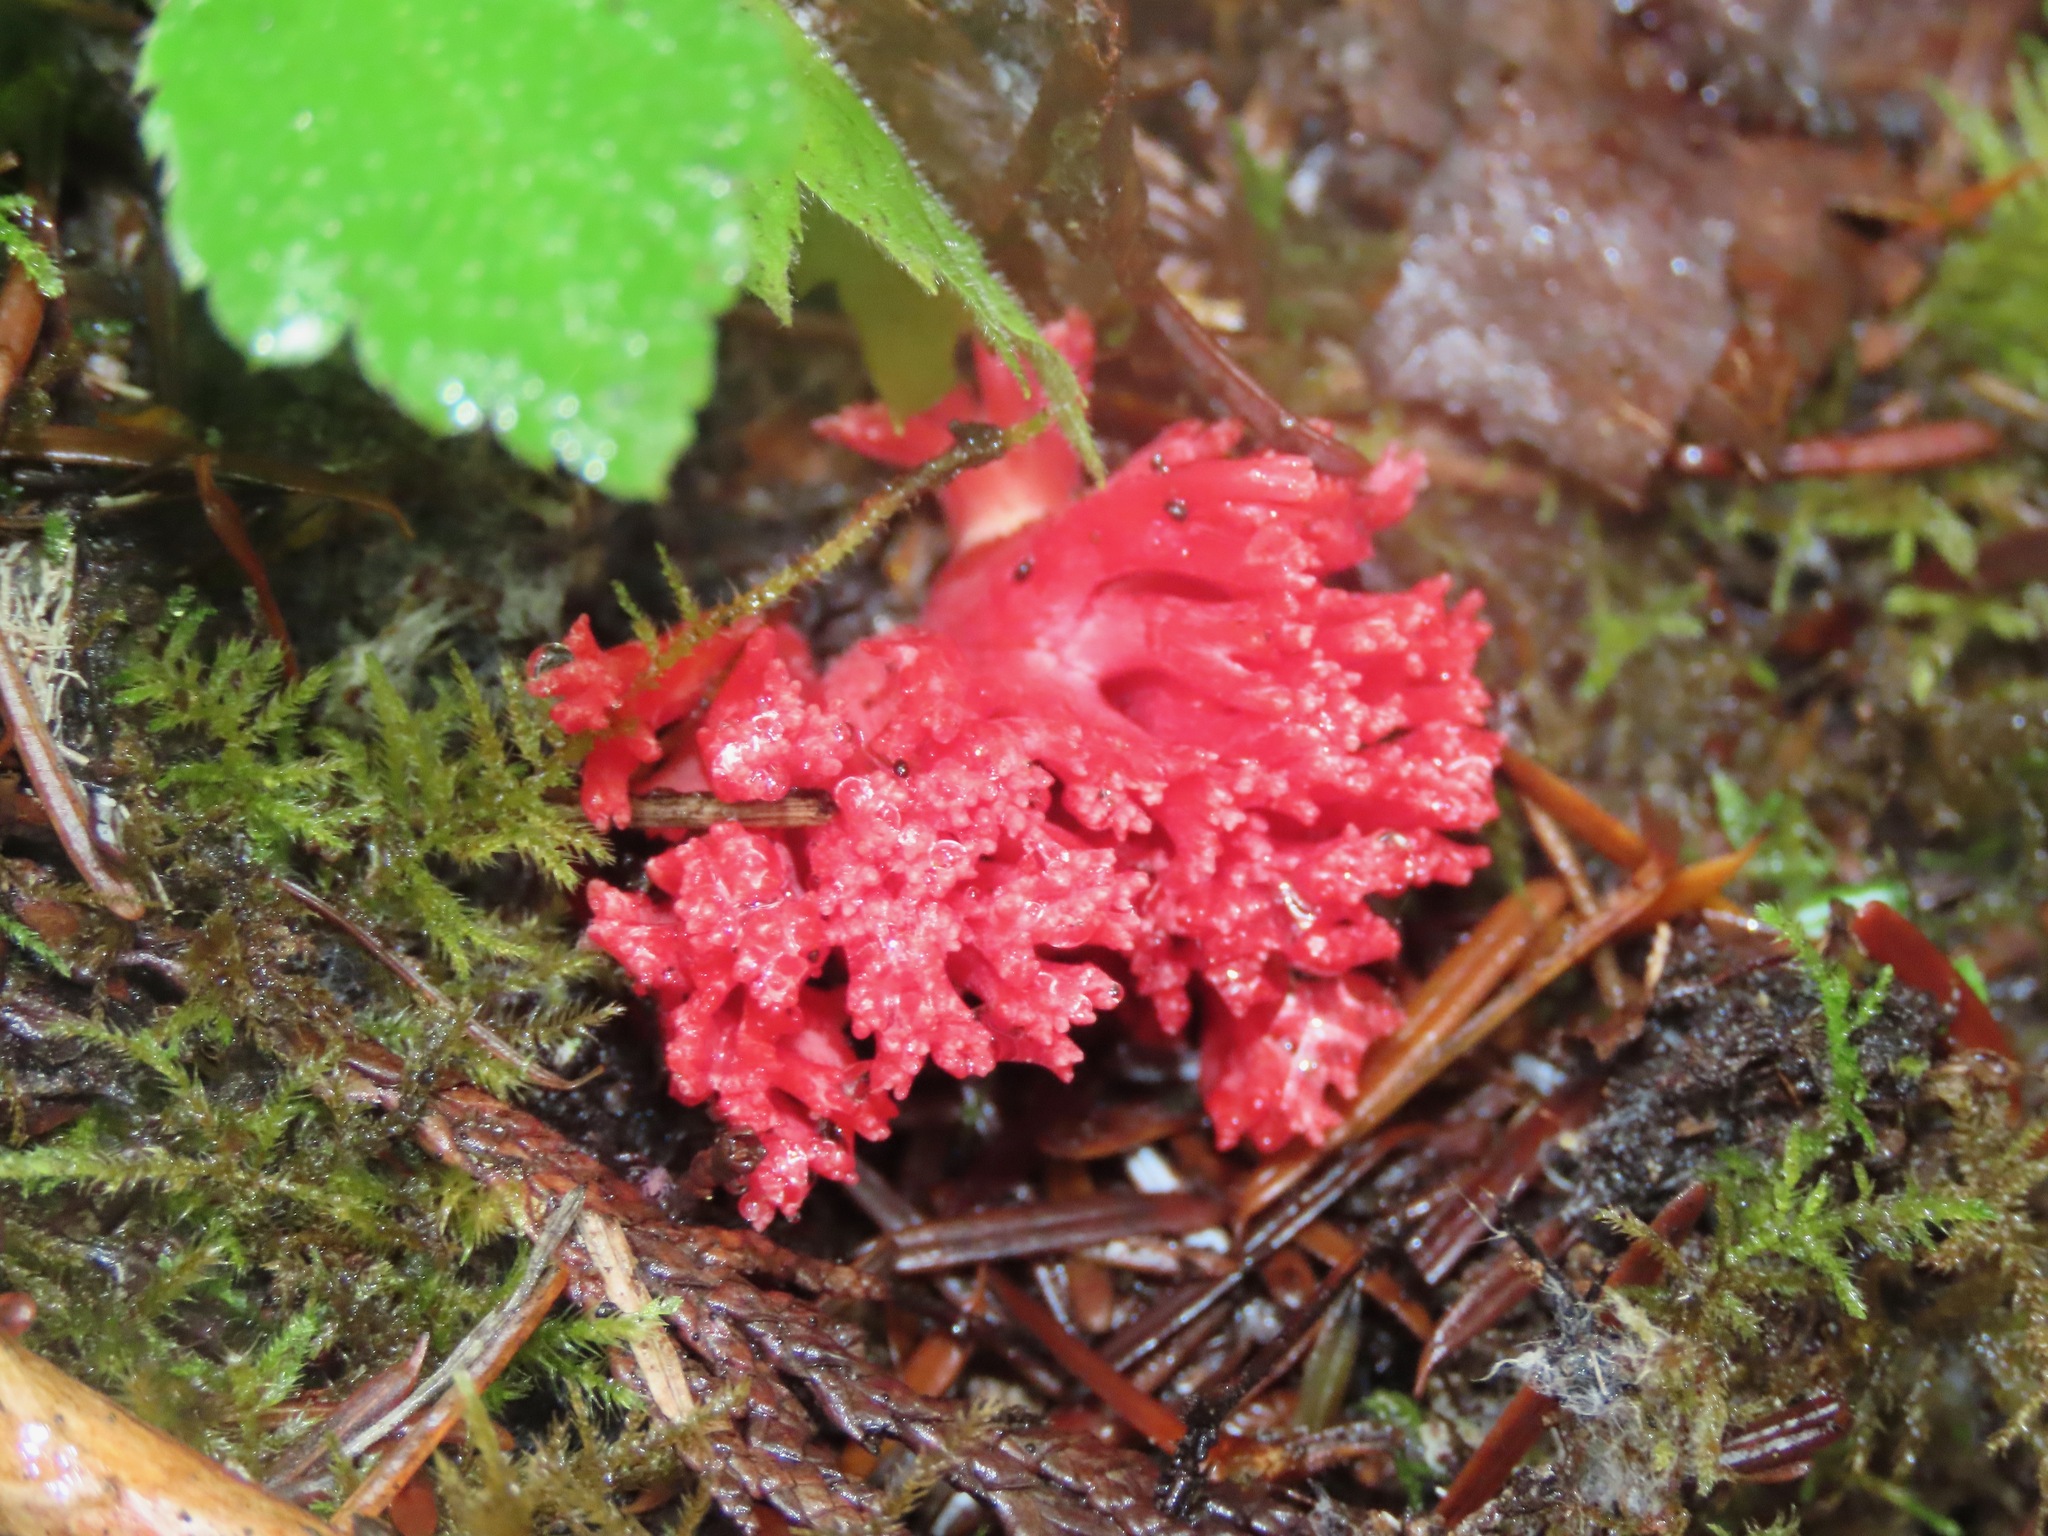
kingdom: Fungi
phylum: Basidiomycota
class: Agaricomycetes
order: Gomphales
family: Gomphaceae
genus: Ramaria
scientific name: Ramaria araiospora
